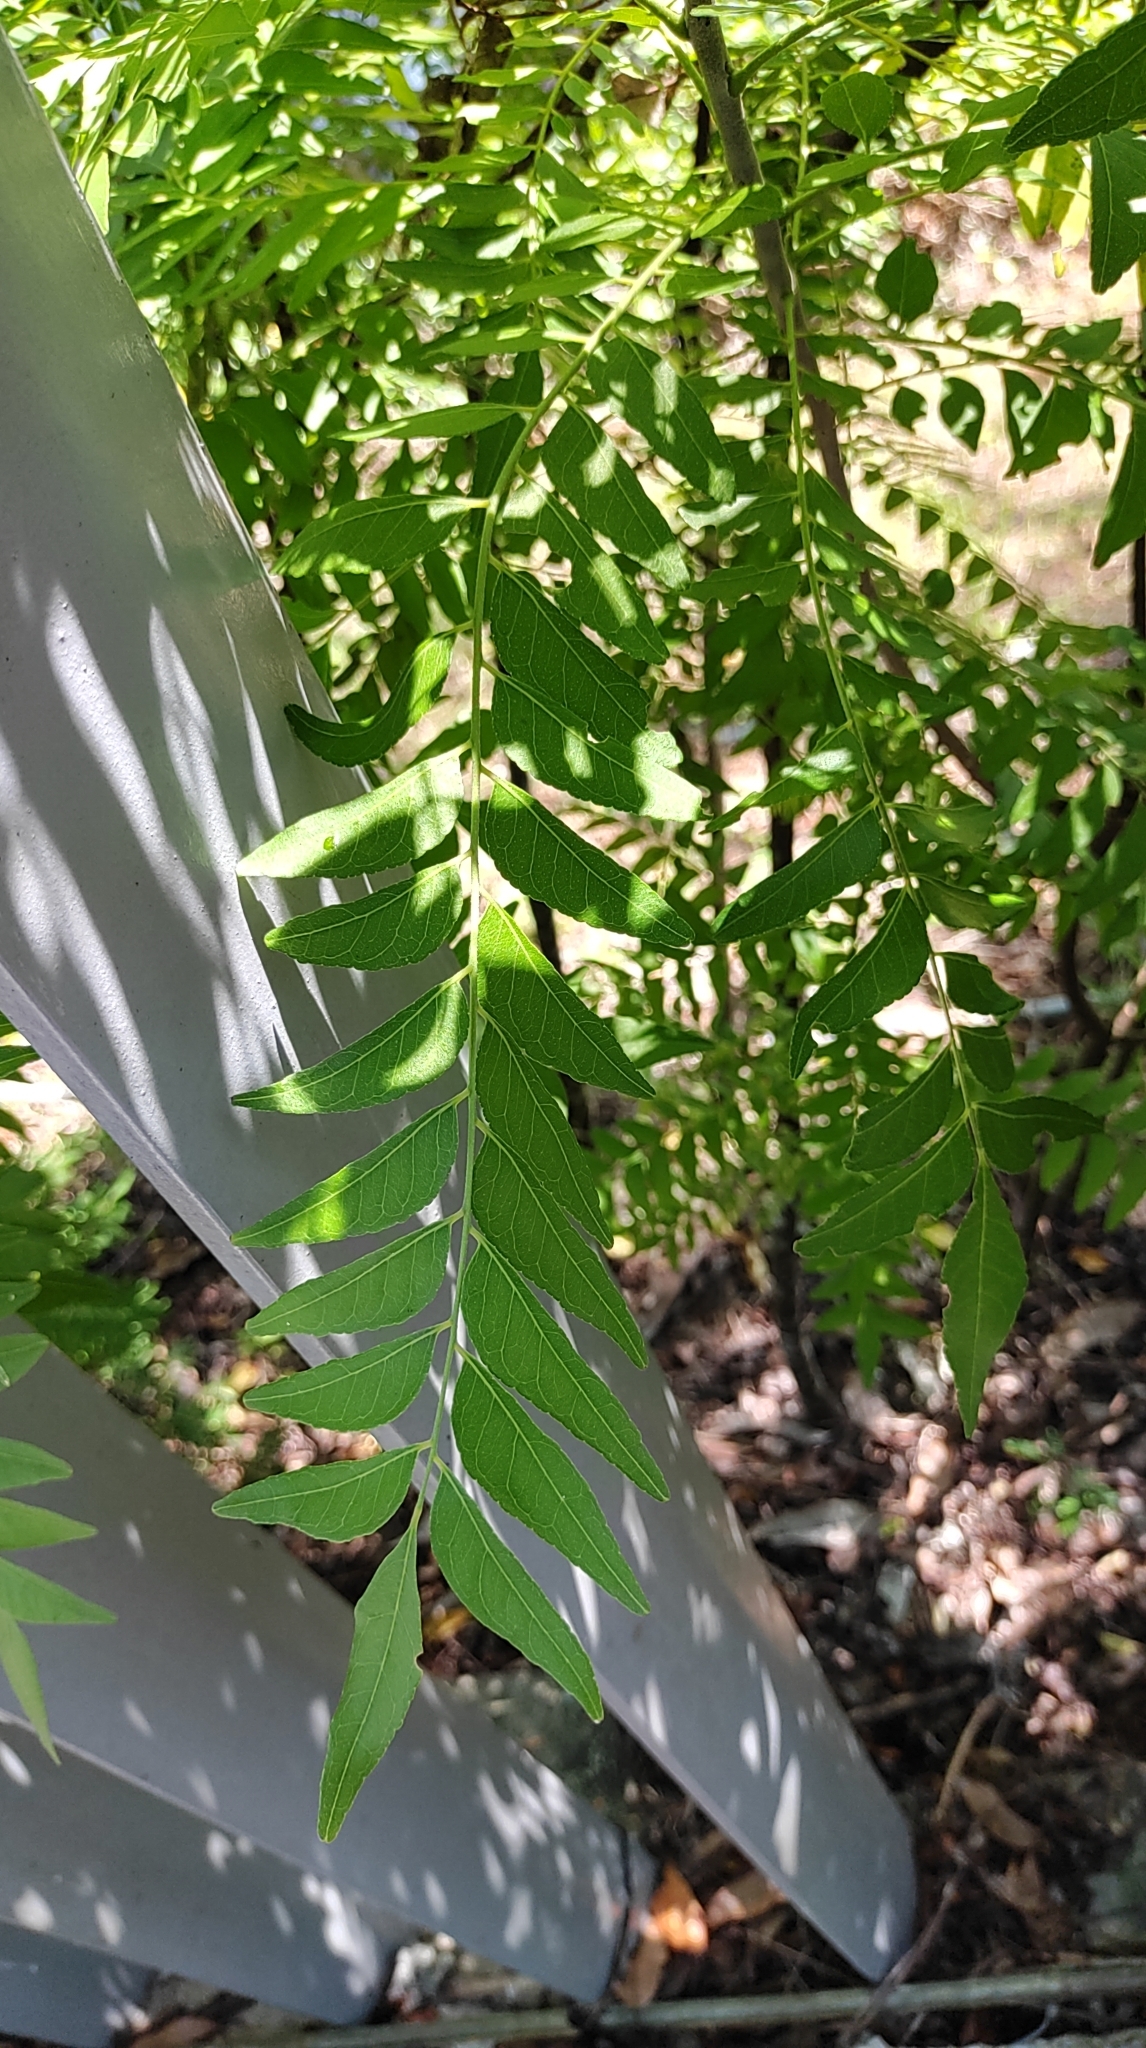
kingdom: Plantae
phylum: Tracheophyta
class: Magnoliopsida
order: Sapindales
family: Rutaceae
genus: Clausena
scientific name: Clausena excavata
